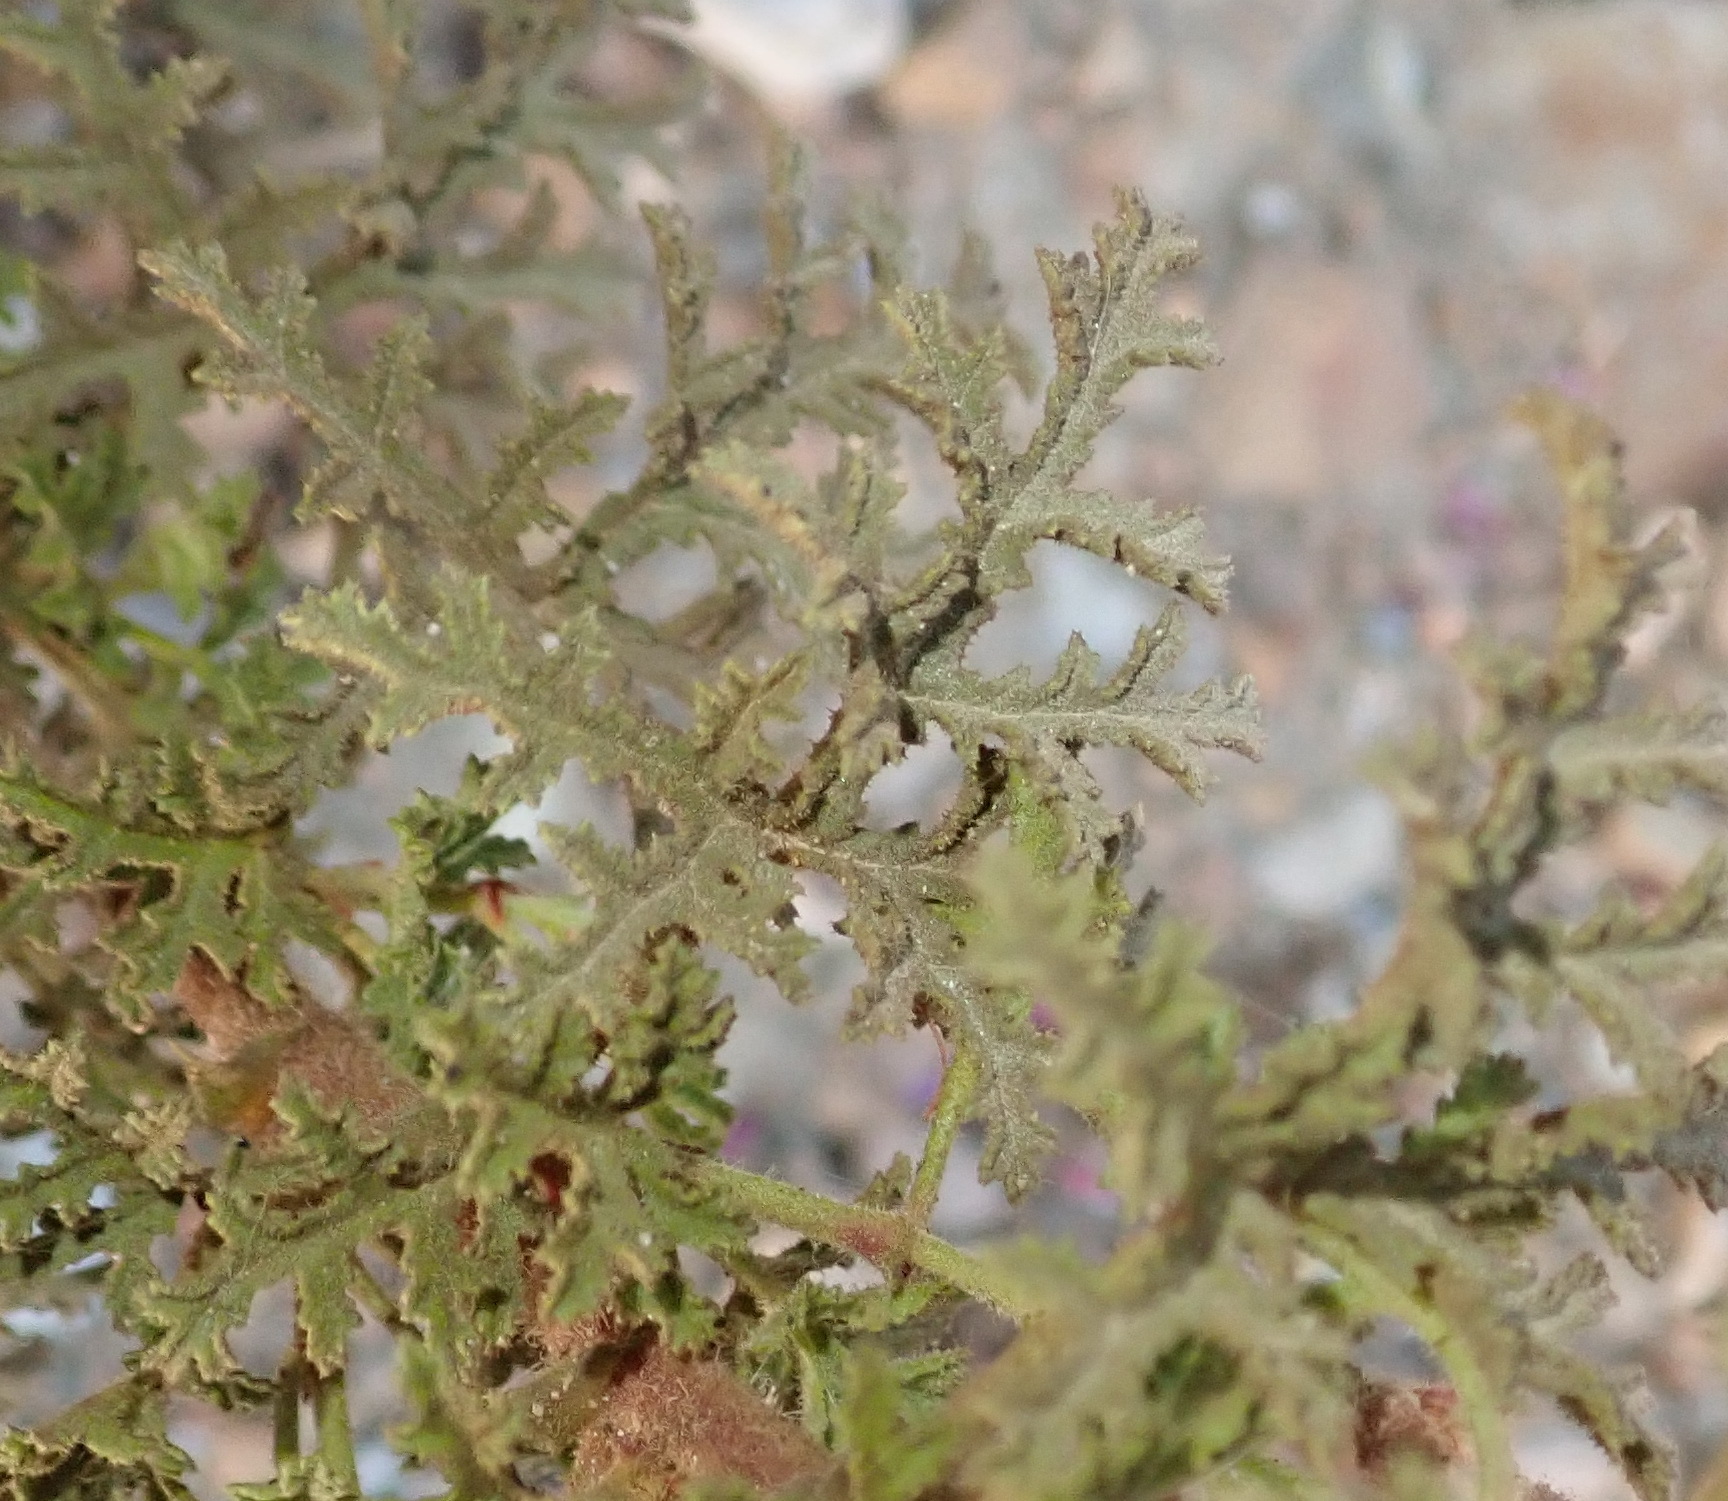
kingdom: Plantae
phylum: Tracheophyta
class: Magnoliopsida
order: Geraniales
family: Geraniaceae
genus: Pelargonium
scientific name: Pelargonium glutinosum
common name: Pheasant-foot geranium
